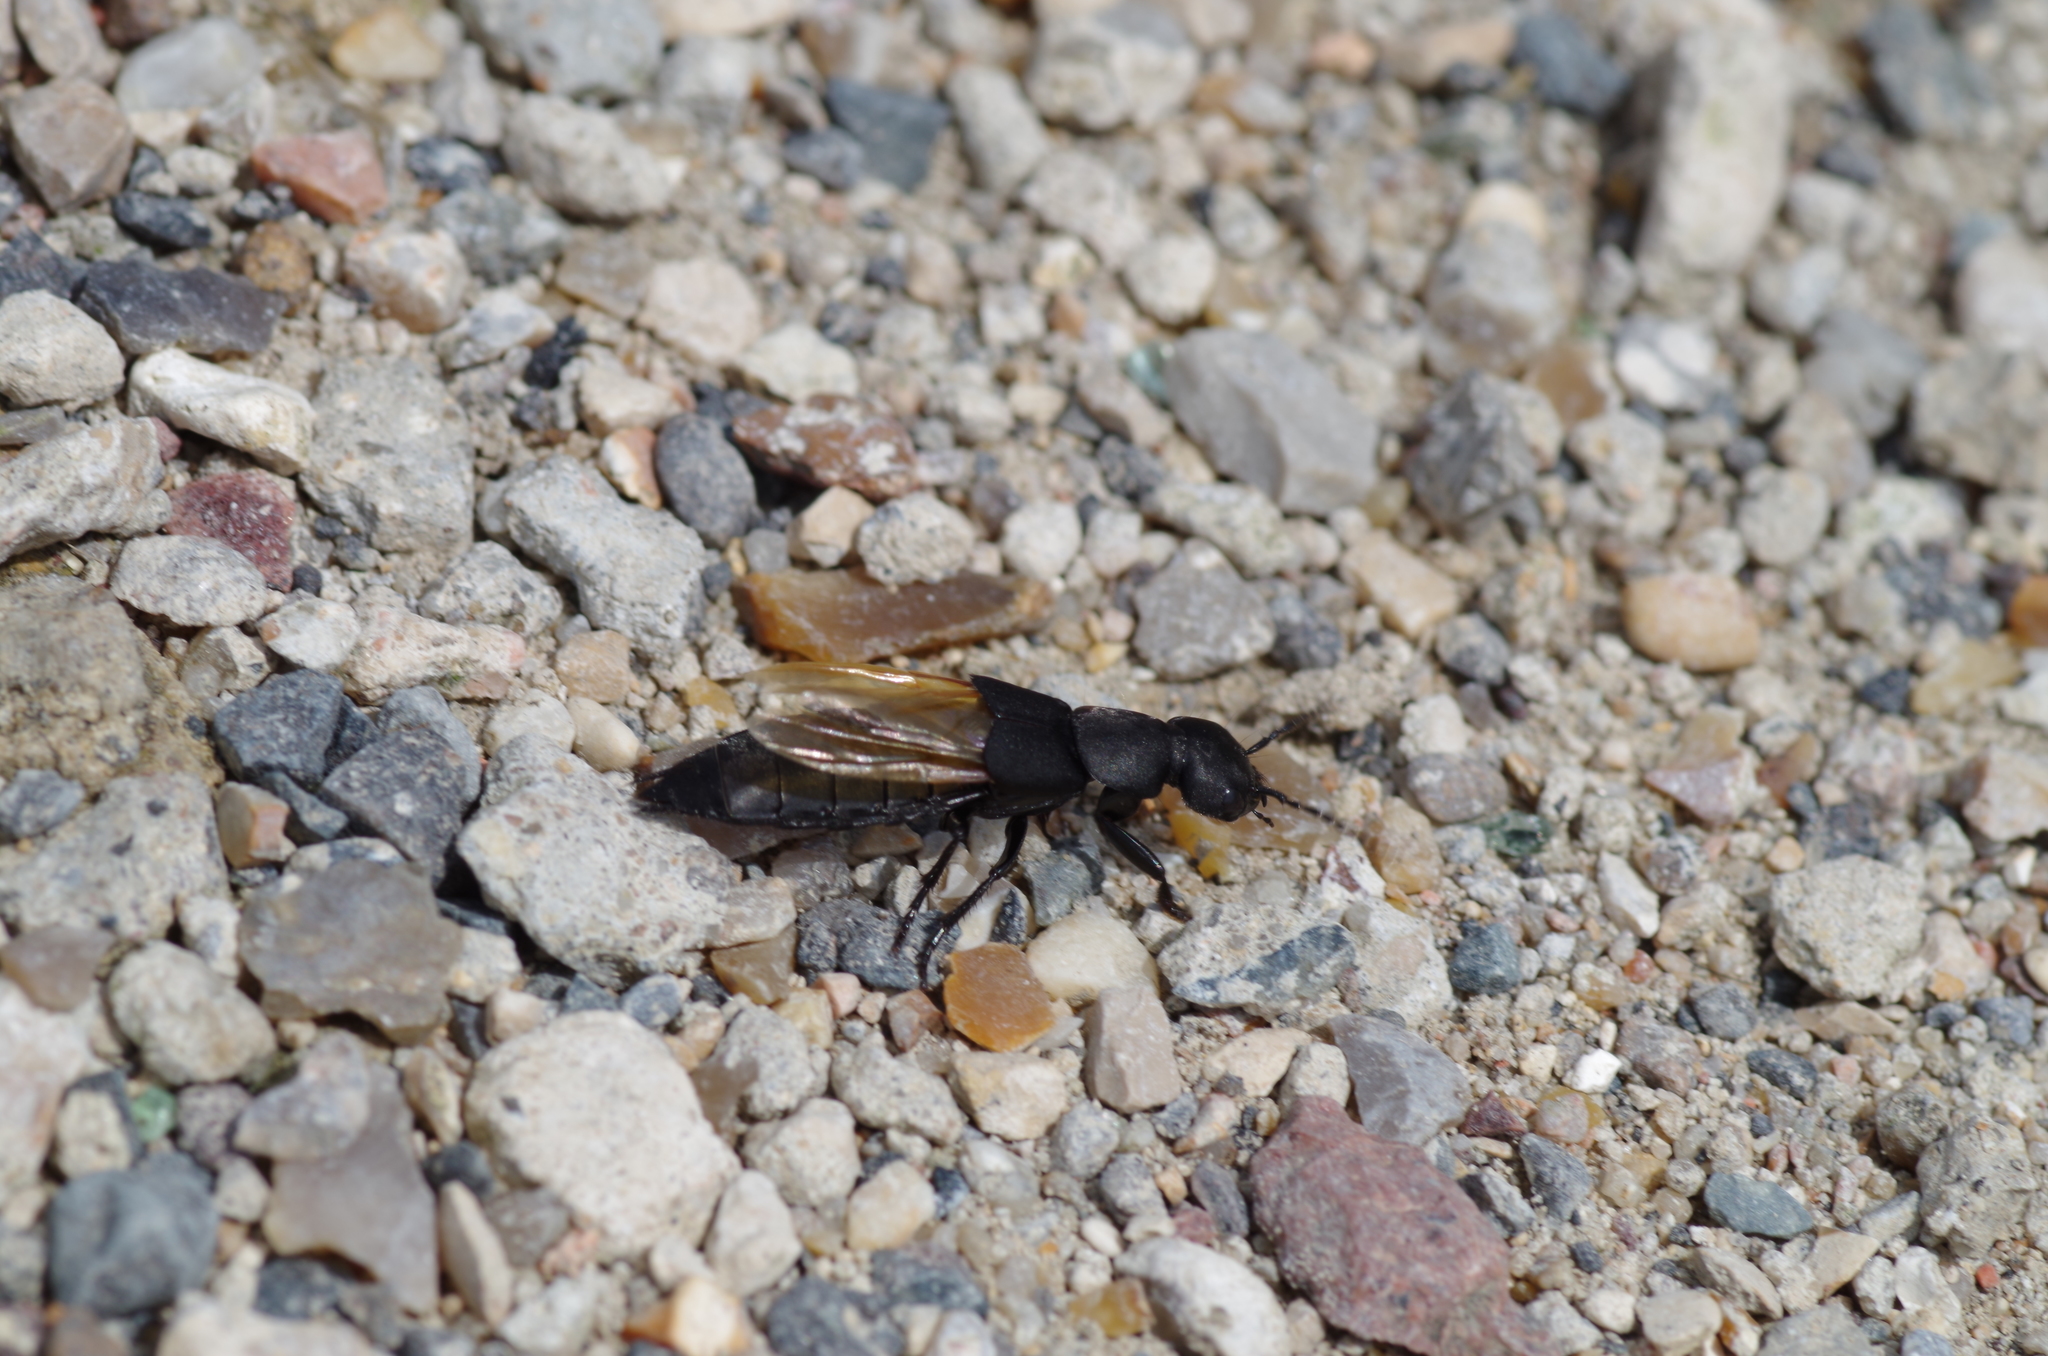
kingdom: Animalia
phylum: Arthropoda
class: Insecta
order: Coleoptera
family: Staphylinidae
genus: Ocypus
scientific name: Ocypus olens
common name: Devil's coach-horse
